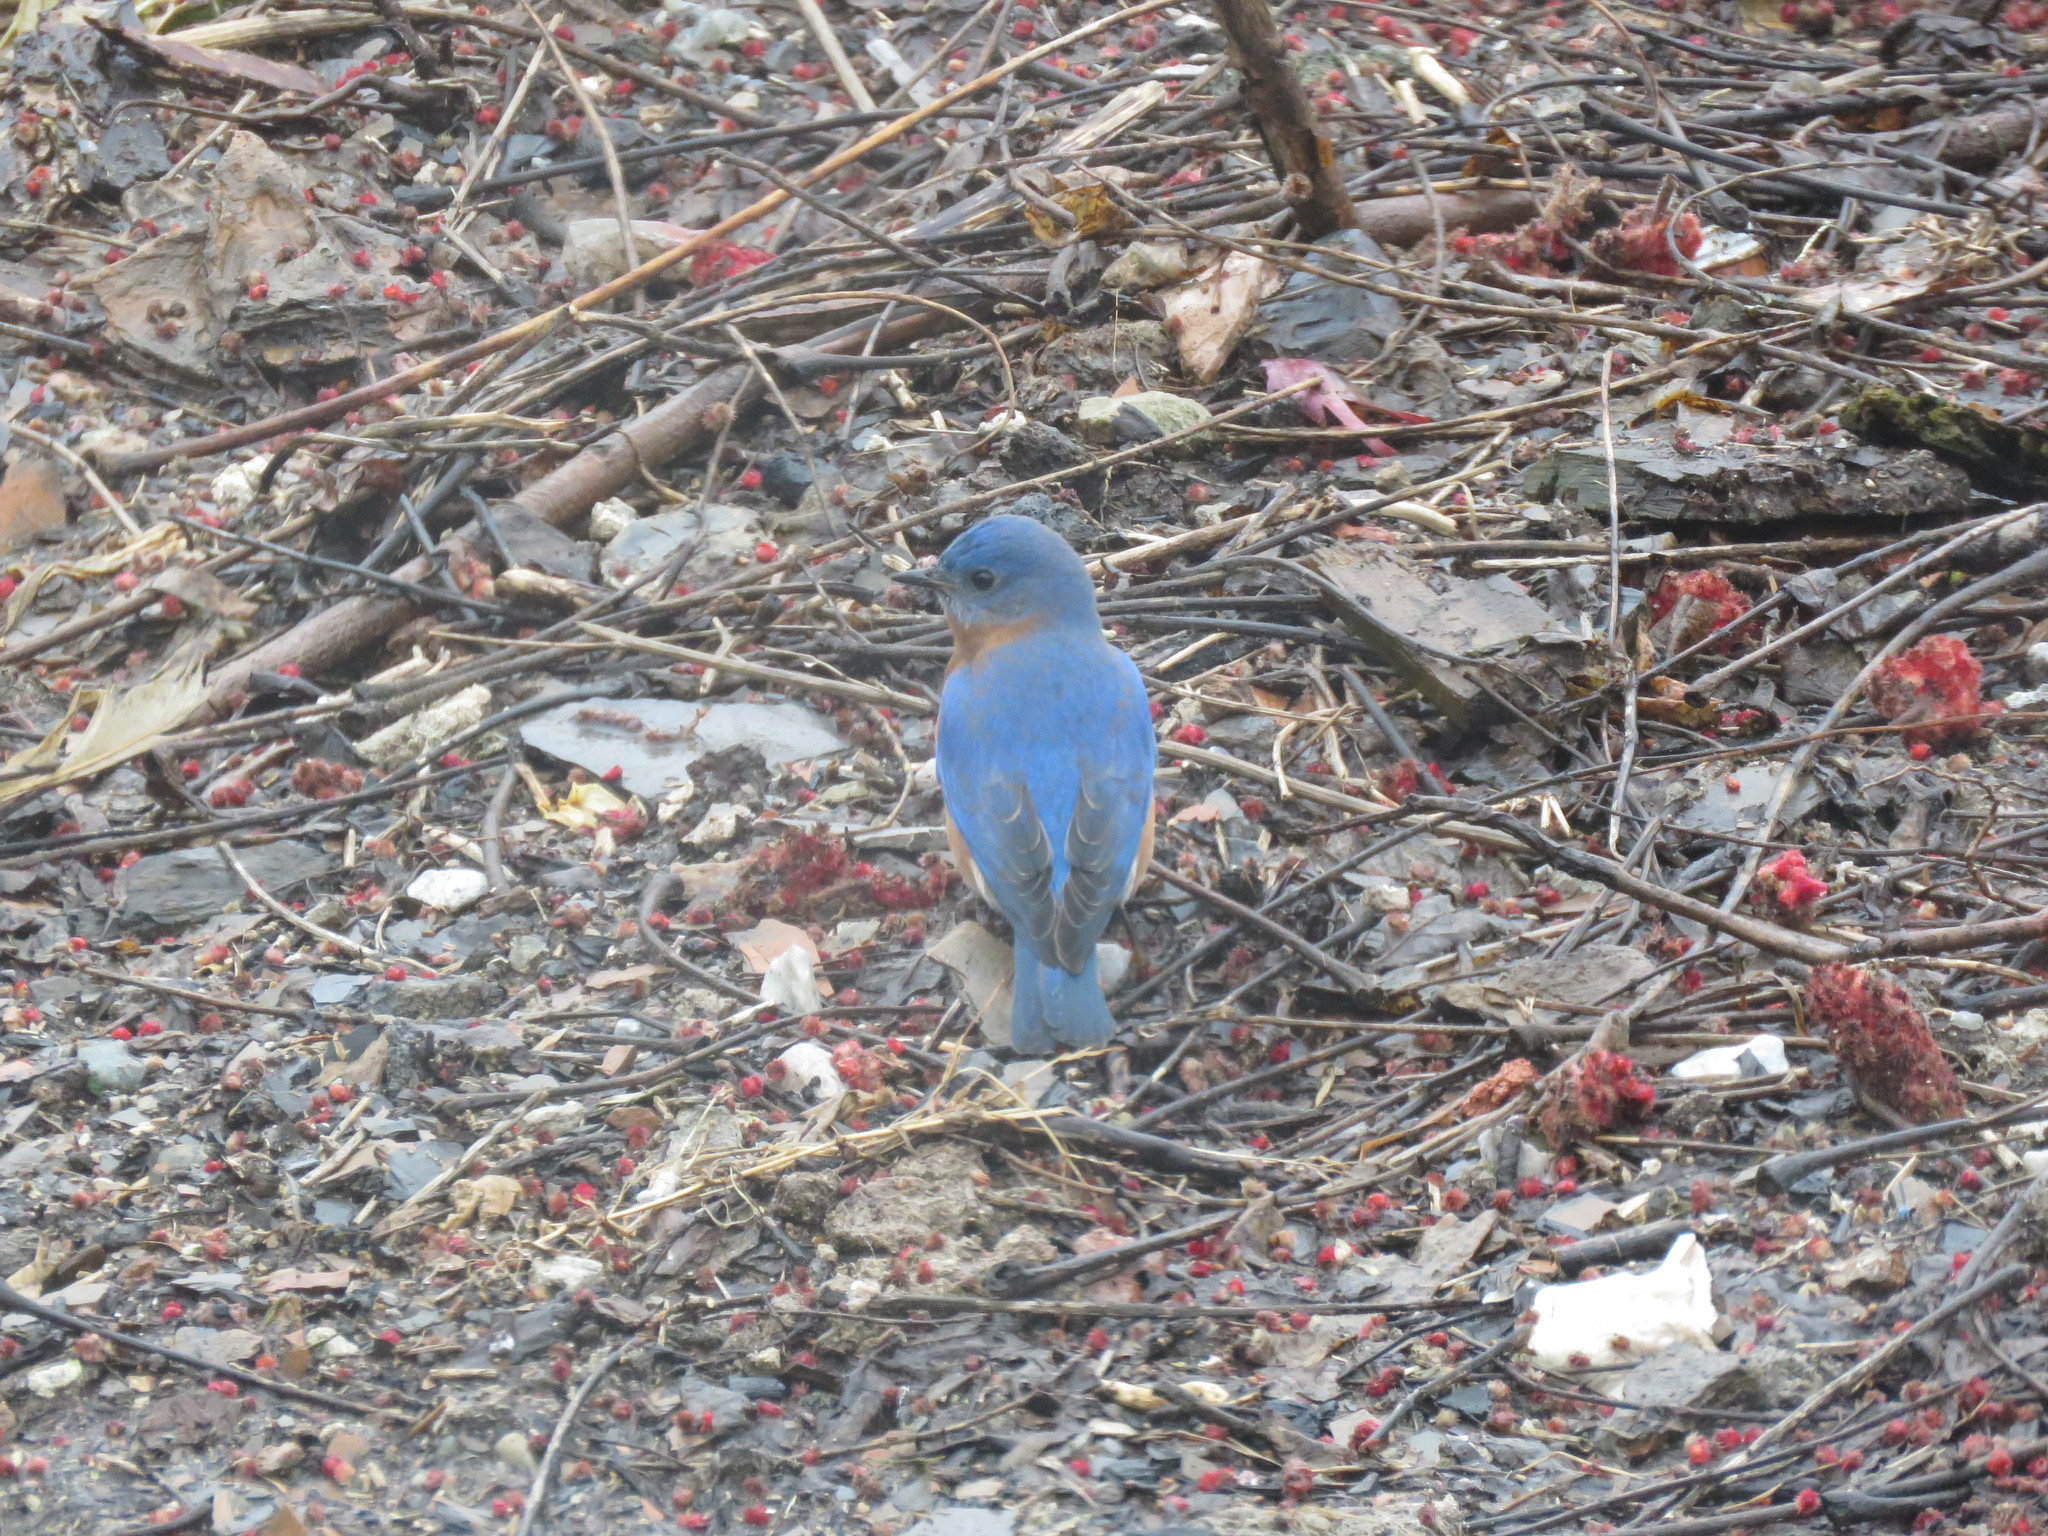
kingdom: Animalia
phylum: Chordata
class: Aves
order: Passeriformes
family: Turdidae
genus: Sialia
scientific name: Sialia sialis
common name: Eastern bluebird
